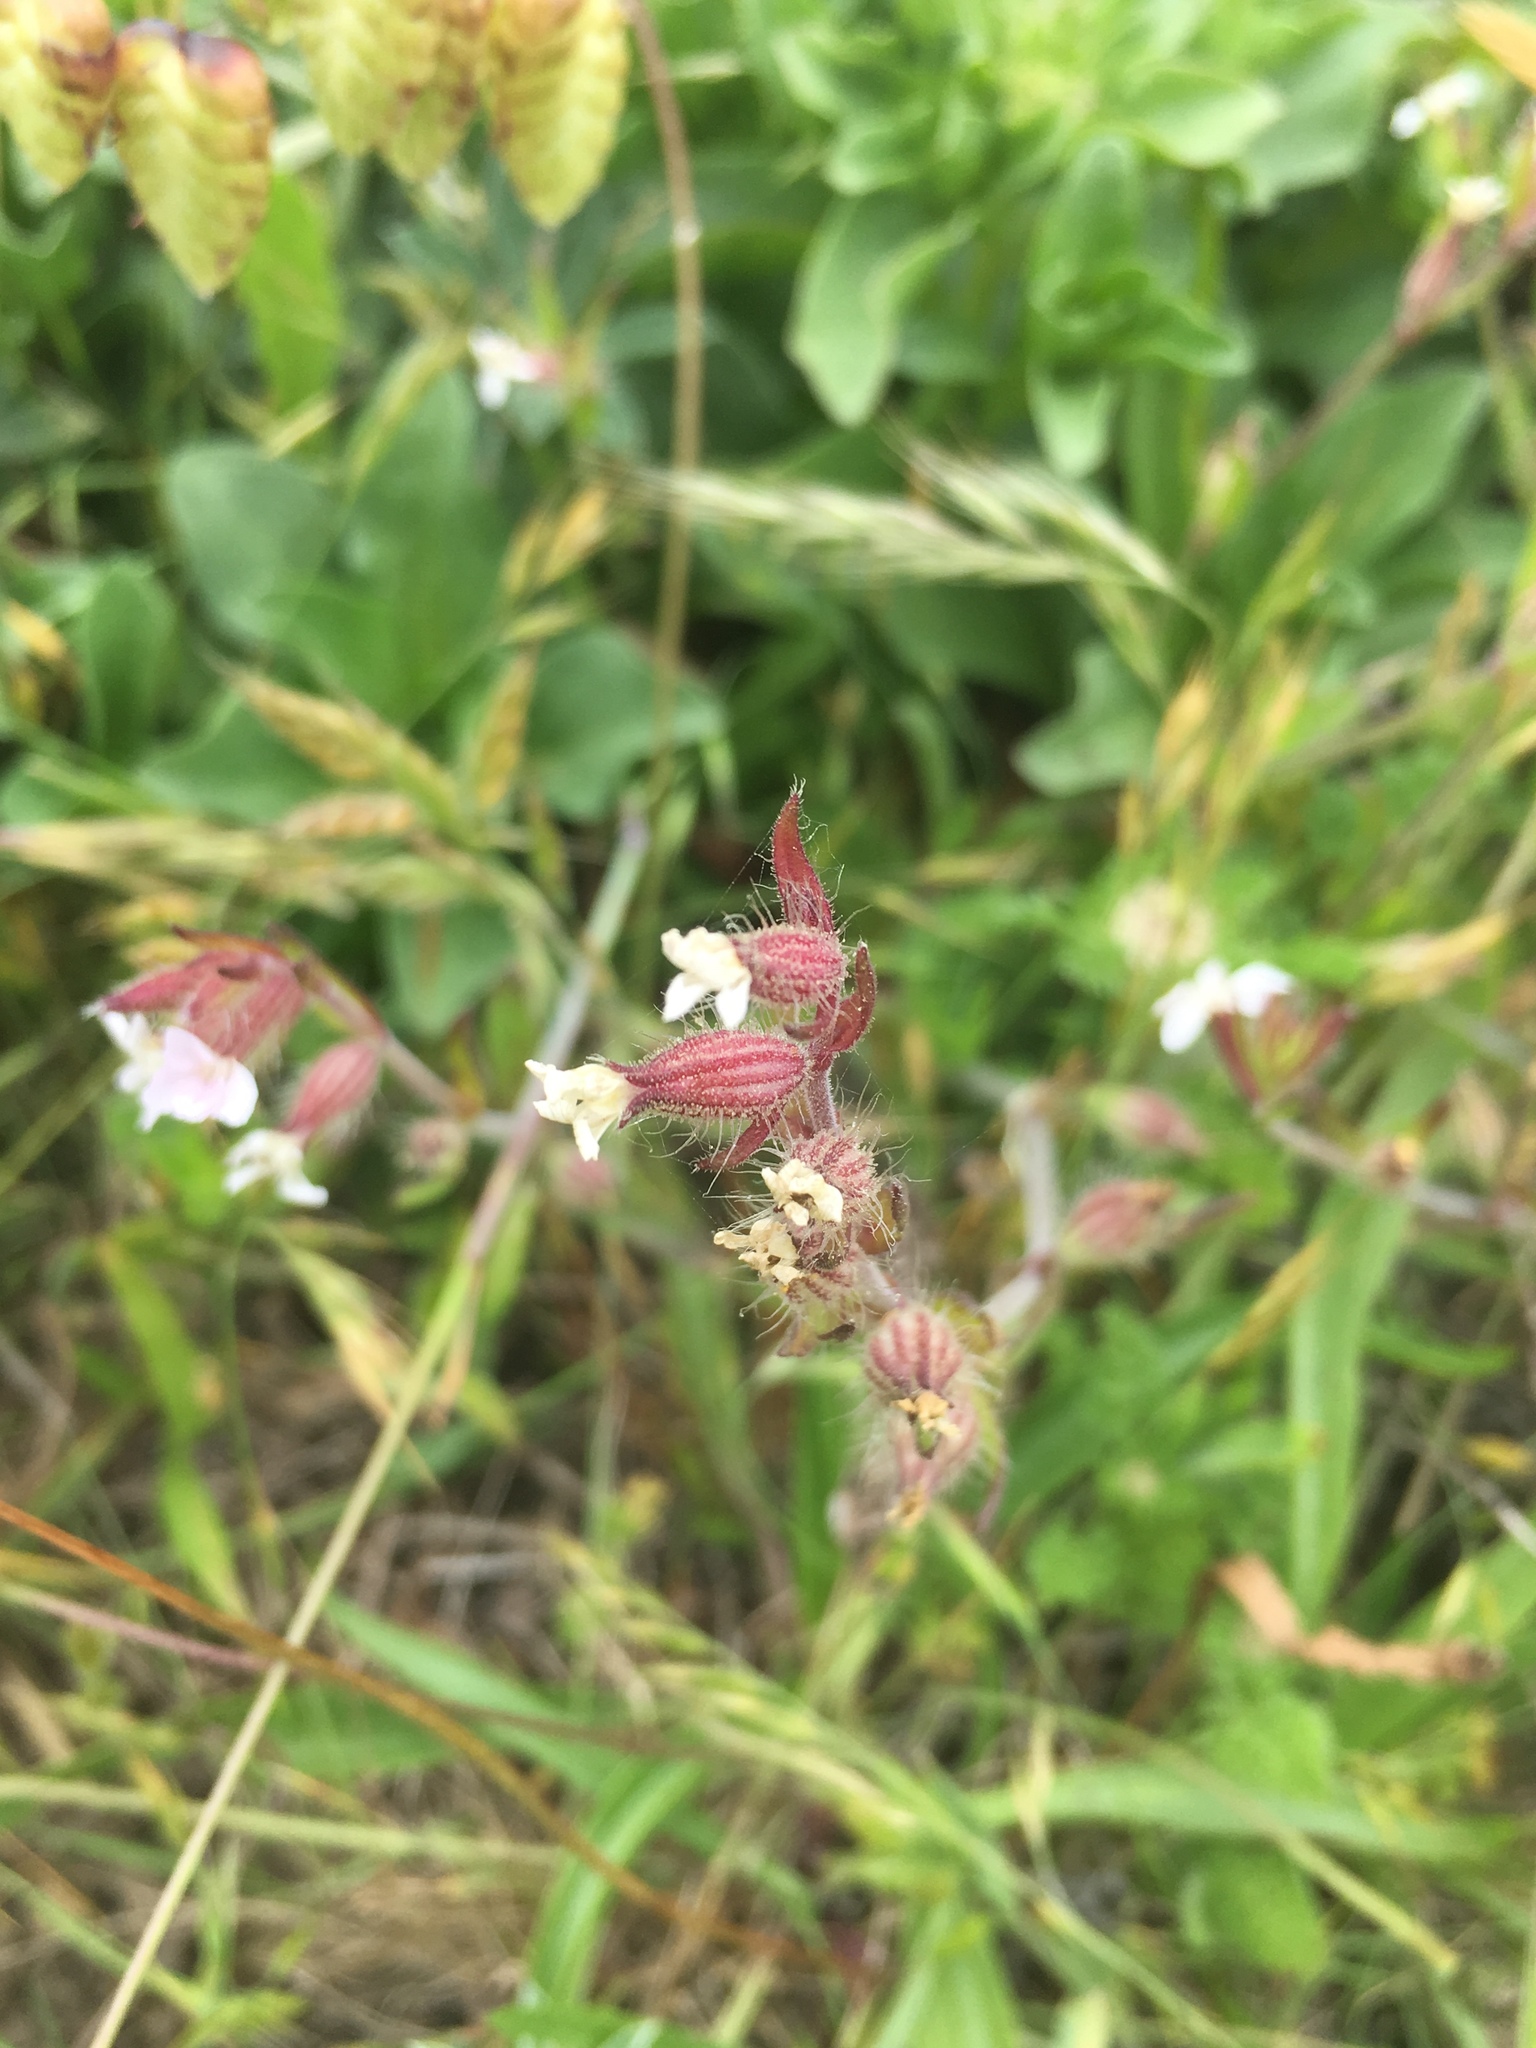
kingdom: Plantae
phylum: Tracheophyta
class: Magnoliopsida
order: Caryophyllales
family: Caryophyllaceae
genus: Silene
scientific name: Silene gallica
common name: Small-flowered catchfly
